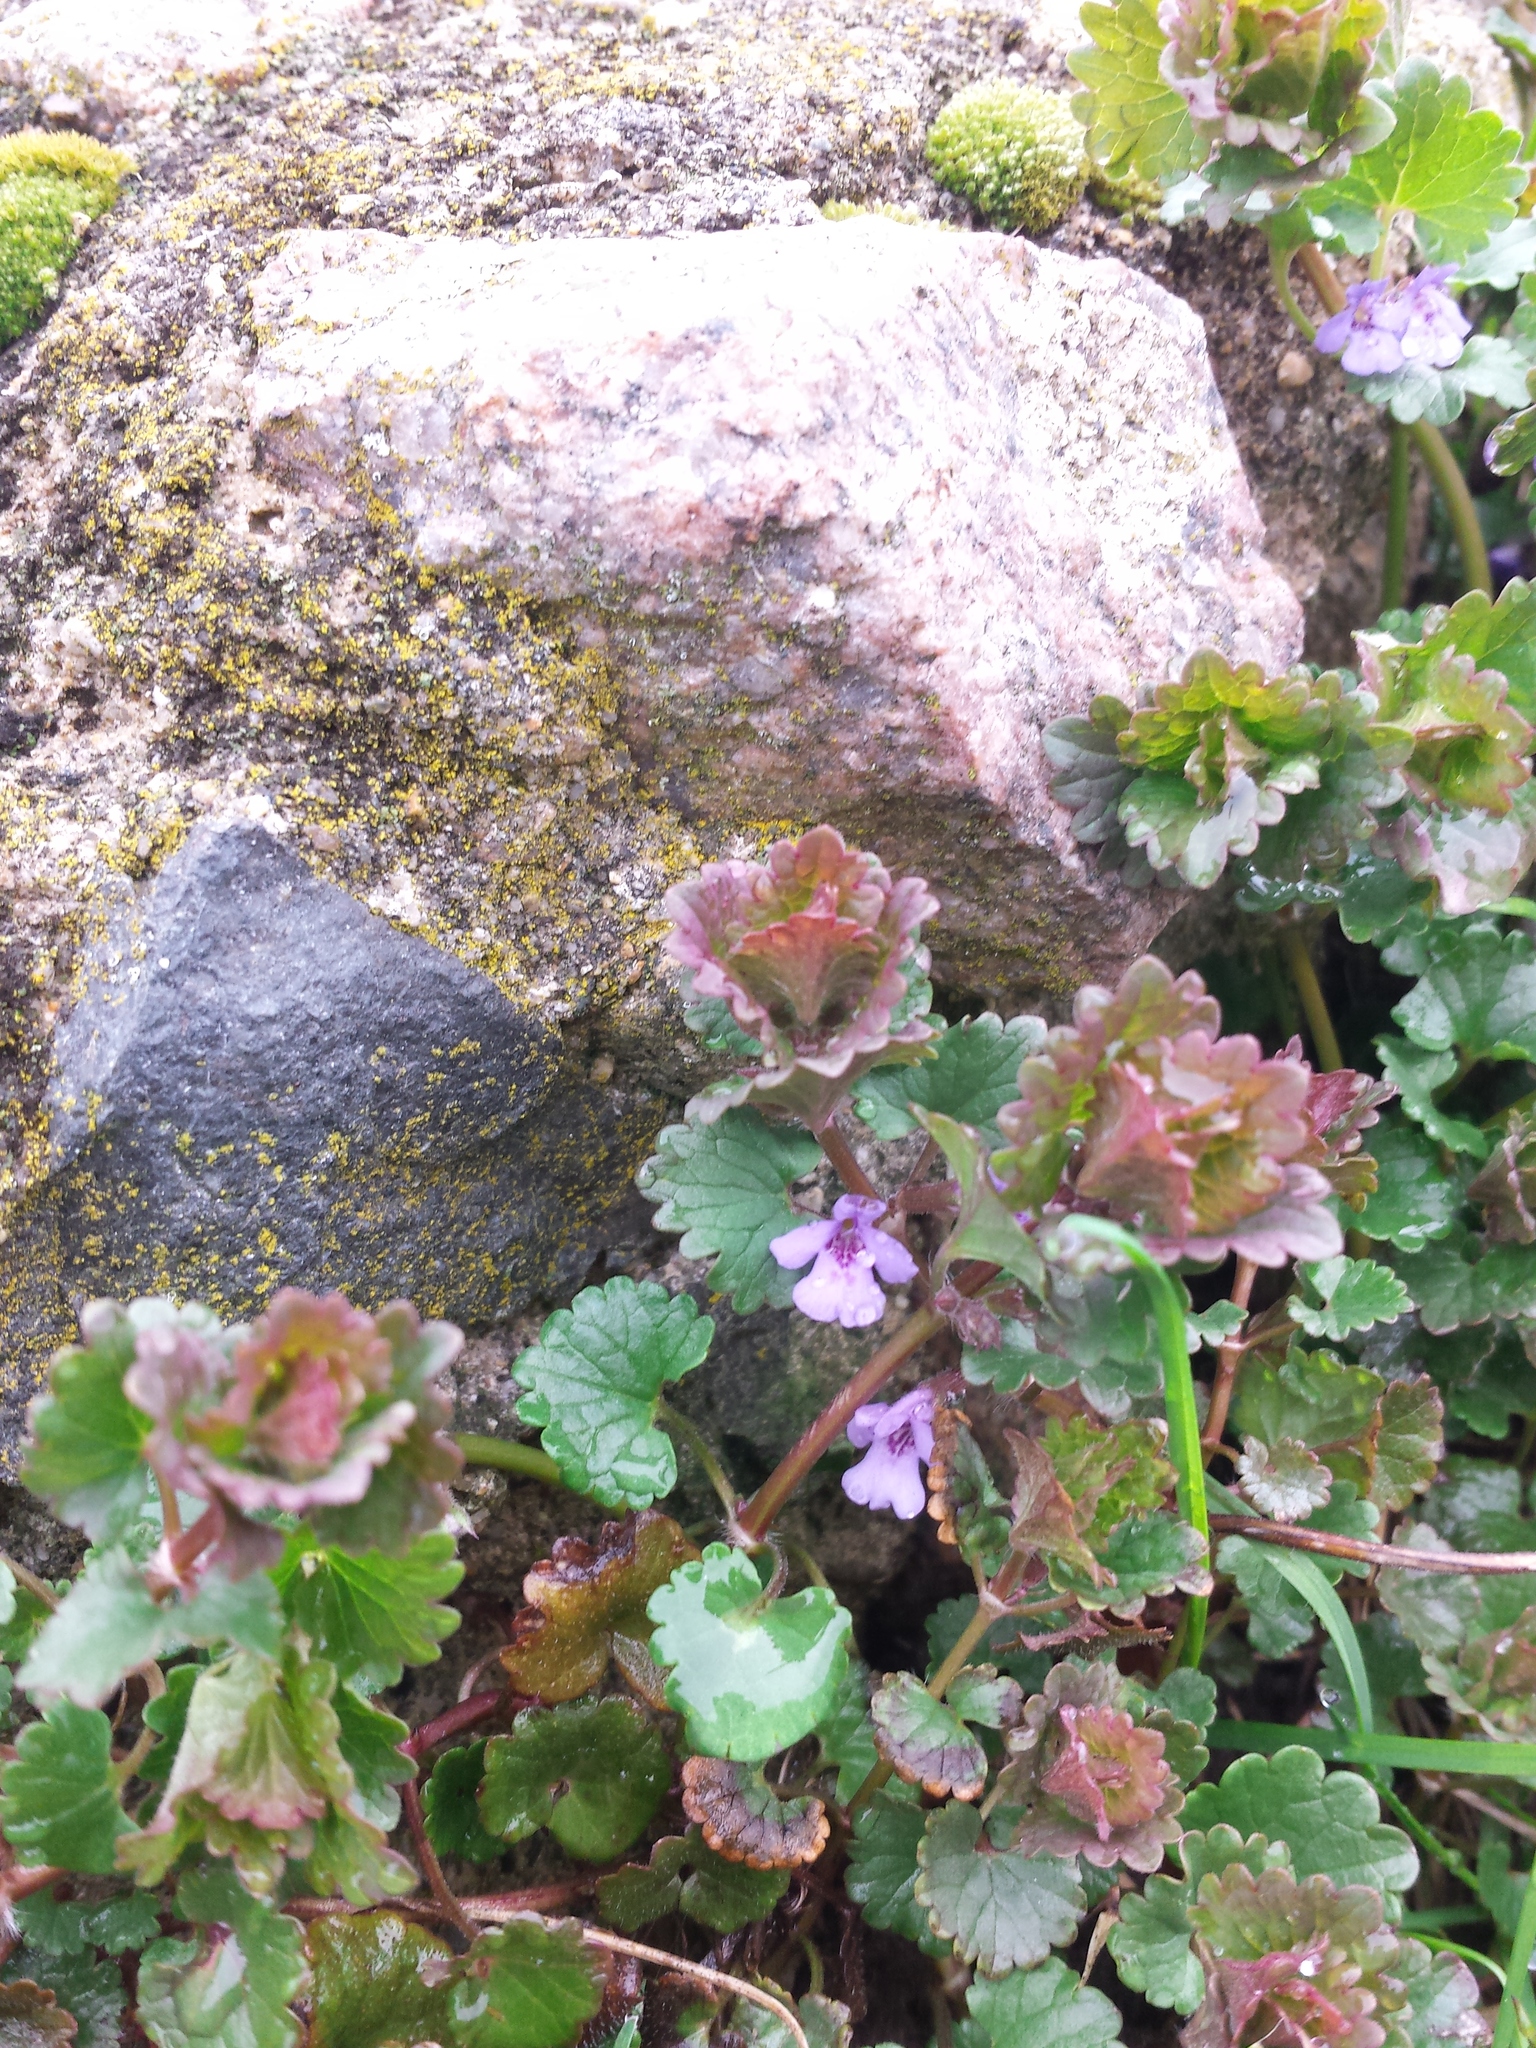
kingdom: Plantae
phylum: Tracheophyta
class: Magnoliopsida
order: Lamiales
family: Lamiaceae
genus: Glechoma
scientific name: Glechoma hederacea
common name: Ground ivy
